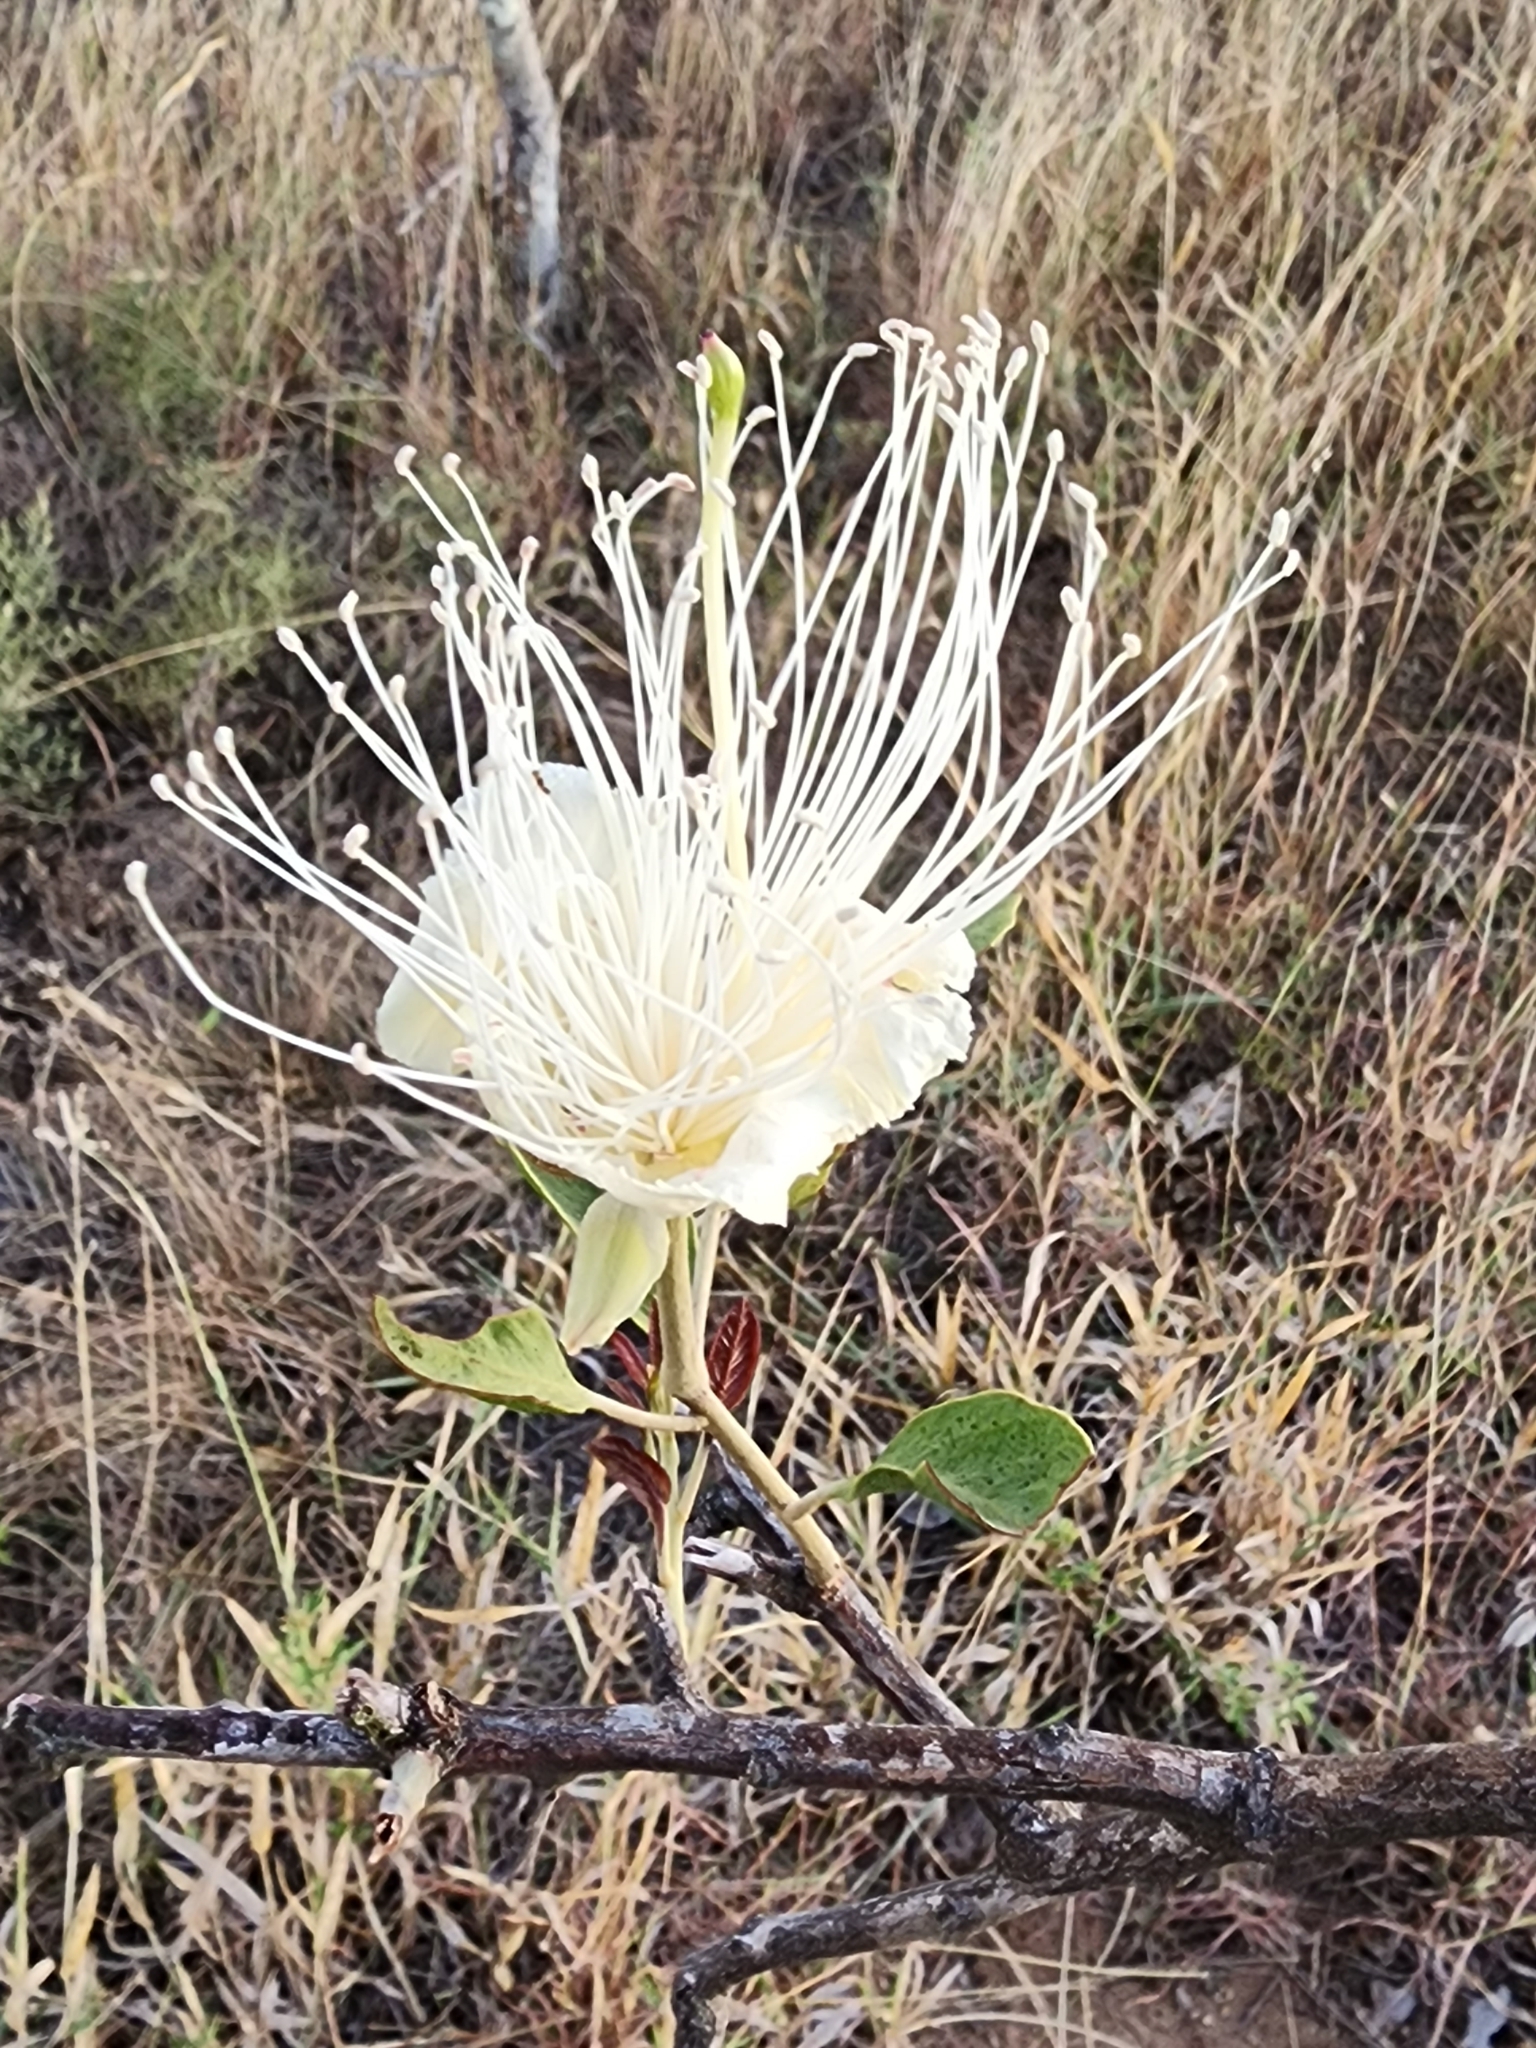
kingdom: Plantae
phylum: Tracheophyta
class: Magnoliopsida
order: Brassicales
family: Capparaceae
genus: Capparis
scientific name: Capparis canescens
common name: Native caper
